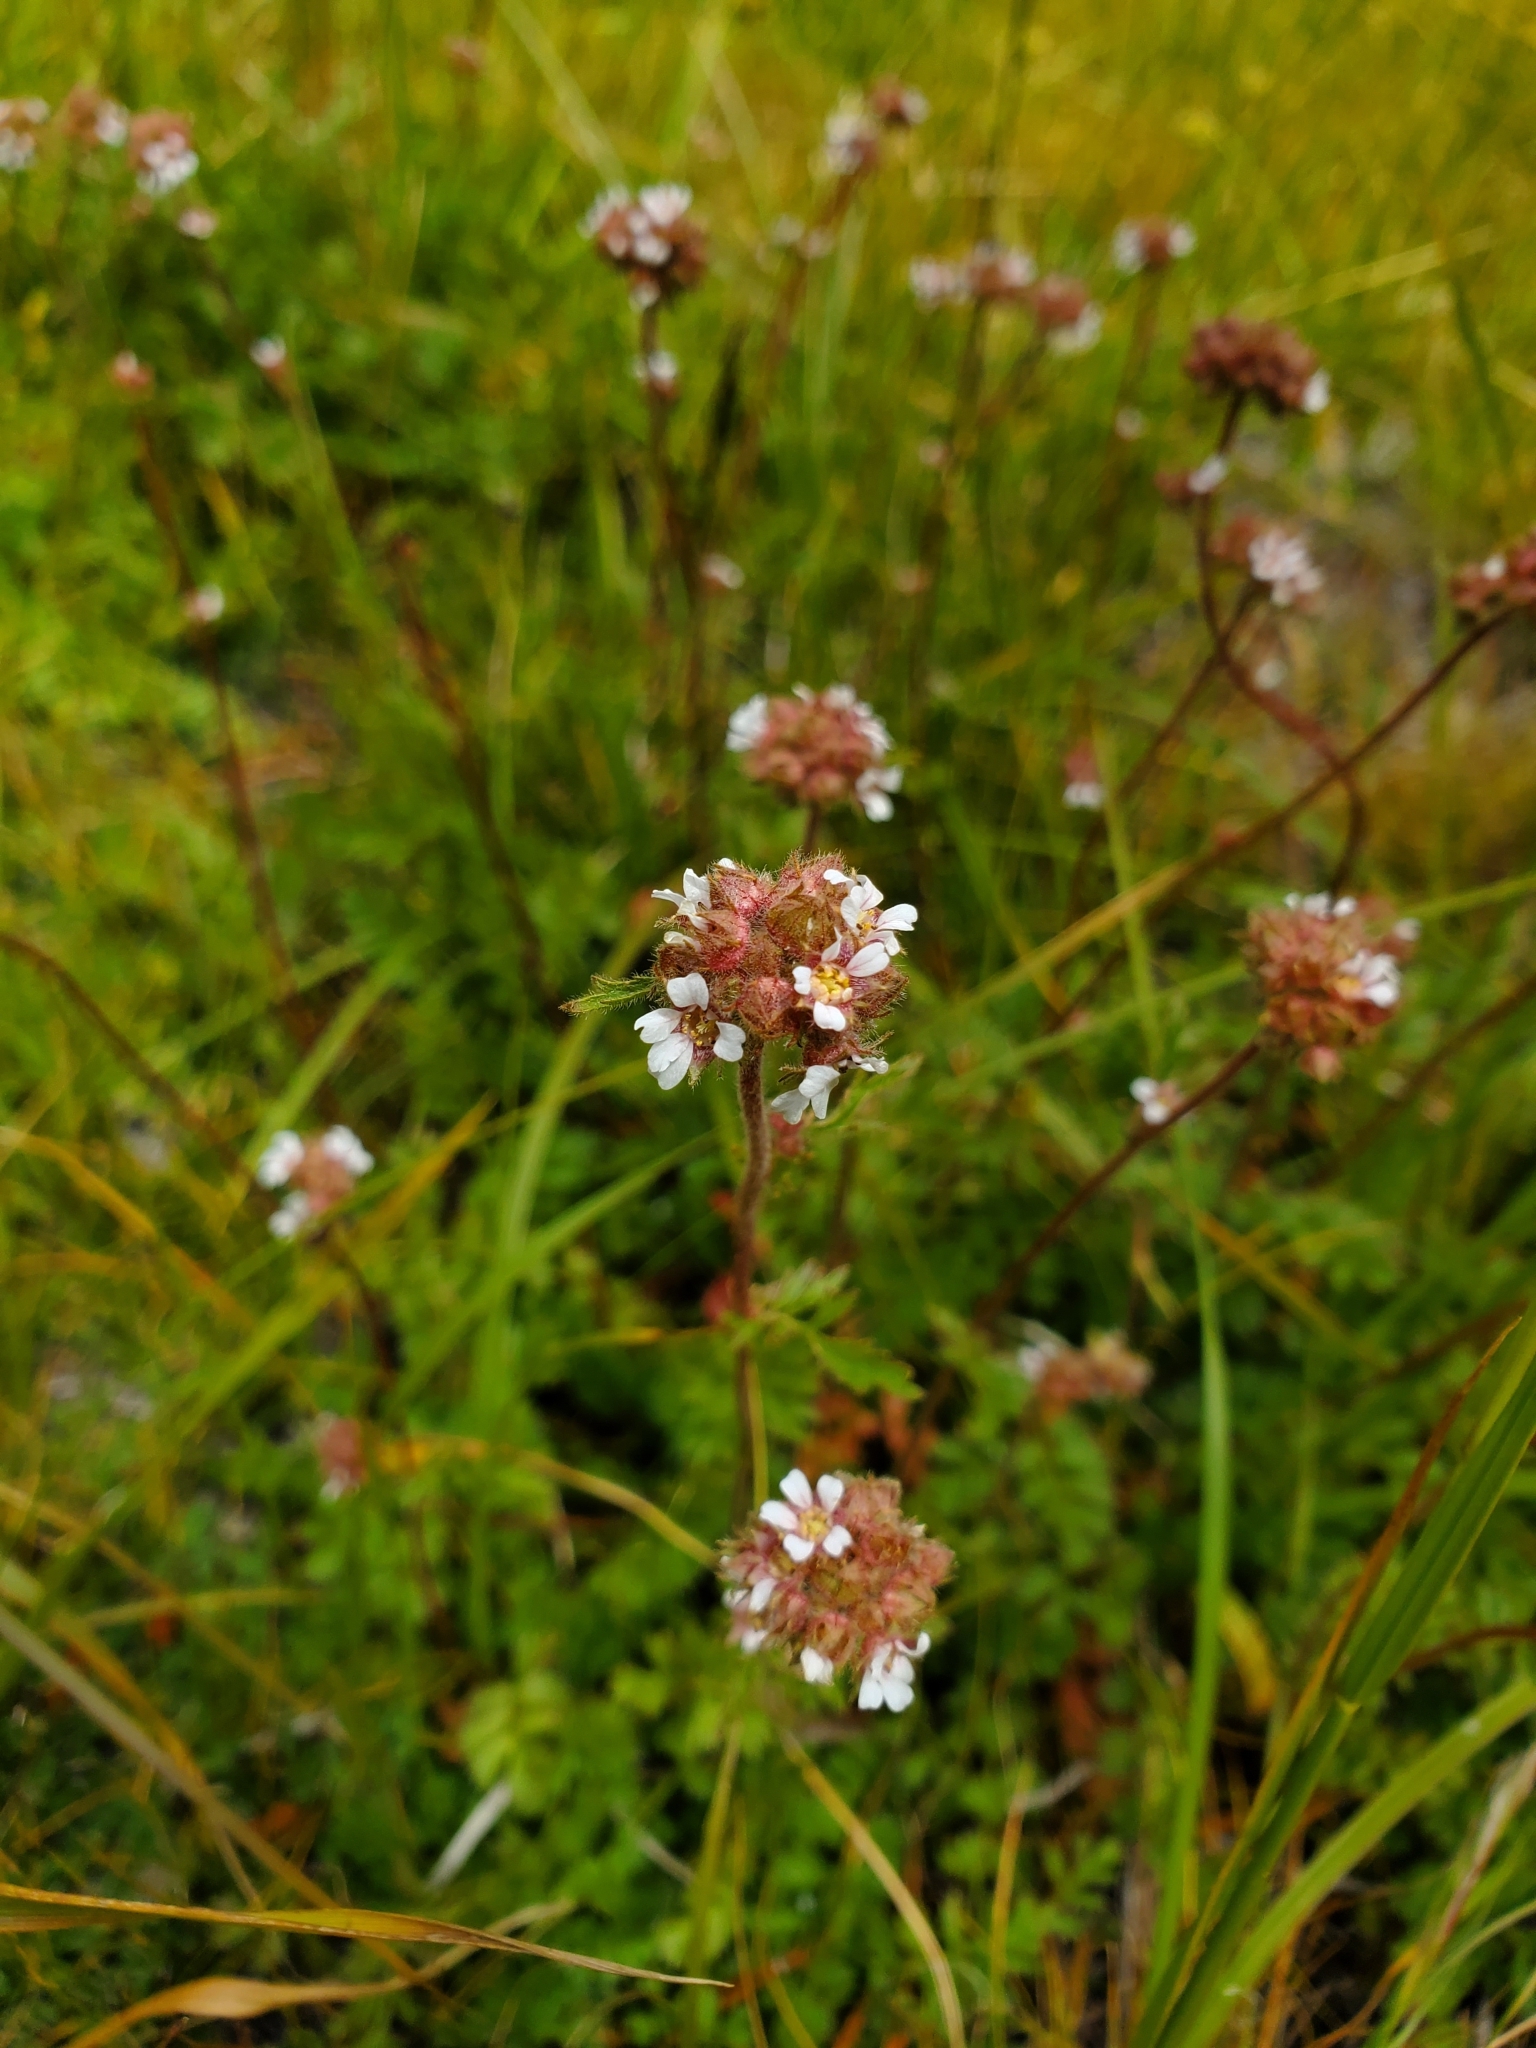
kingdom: Plantae
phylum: Tracheophyta
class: Magnoliopsida
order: Rosales
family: Rosaceae
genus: Potentilla
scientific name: Potentilla douglasii
